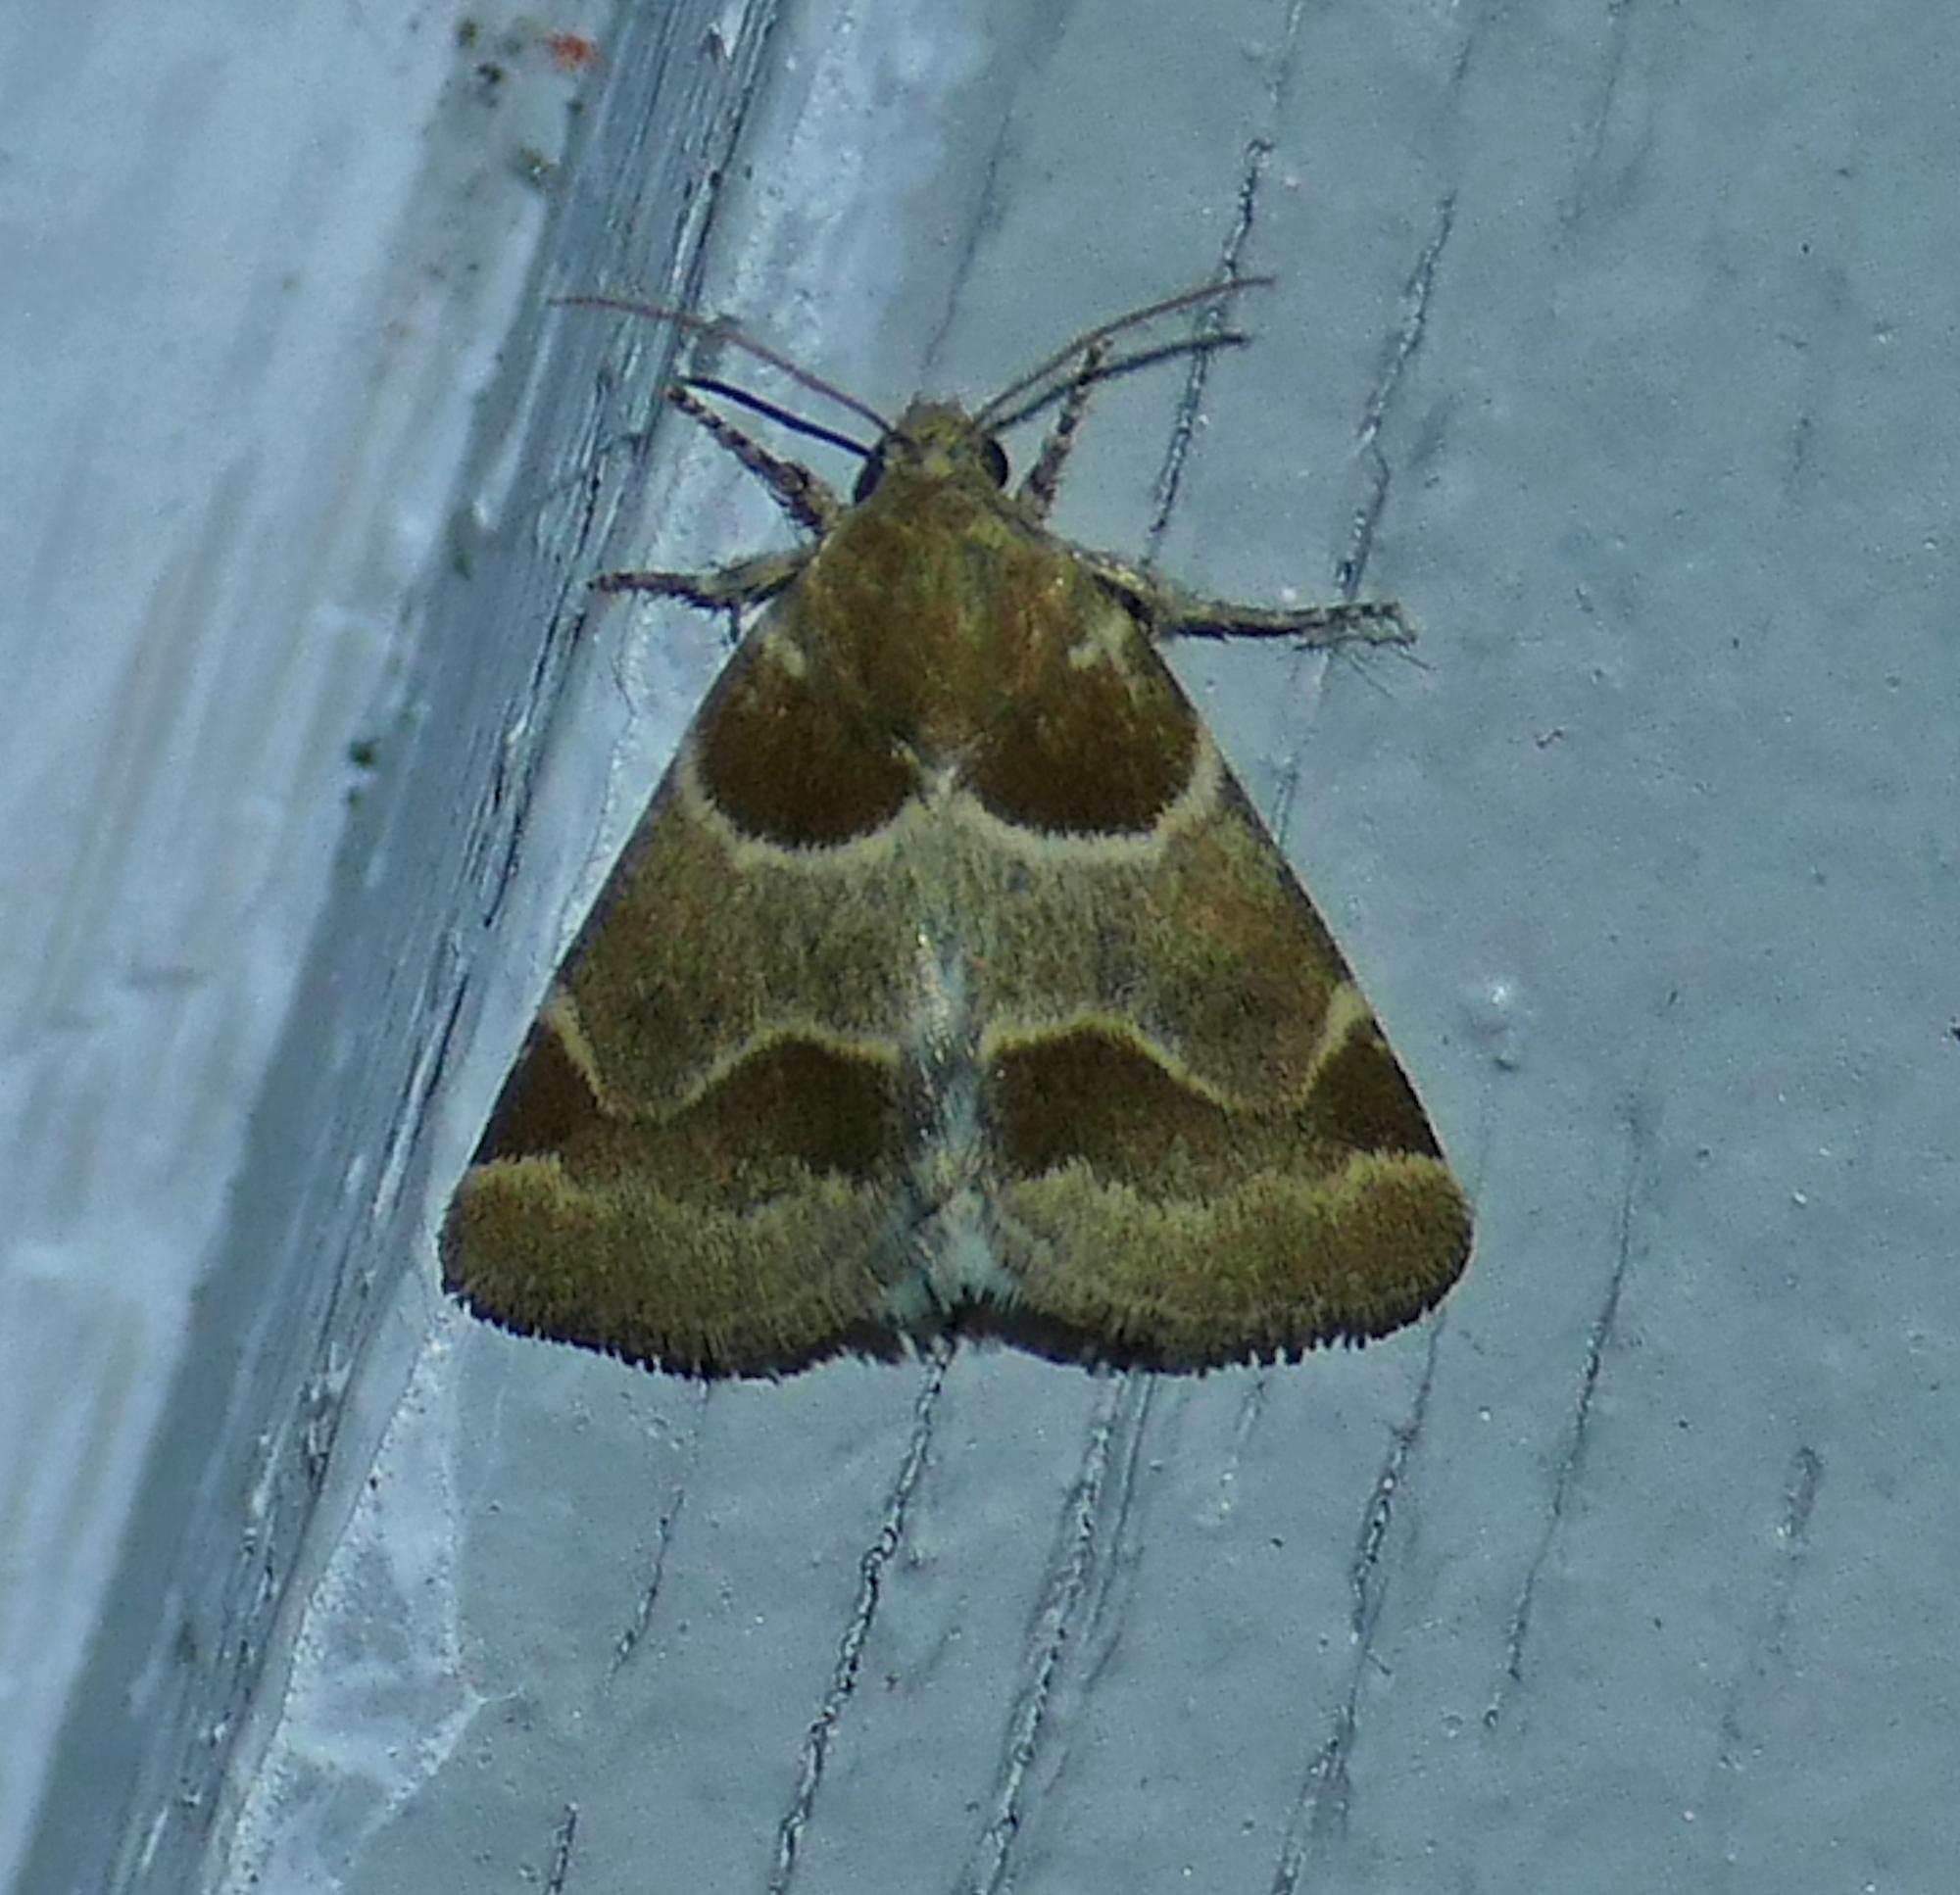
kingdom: Animalia
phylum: Arthropoda
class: Insecta
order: Lepidoptera
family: Noctuidae
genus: Schinia
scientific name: Schinia sexplagiata
